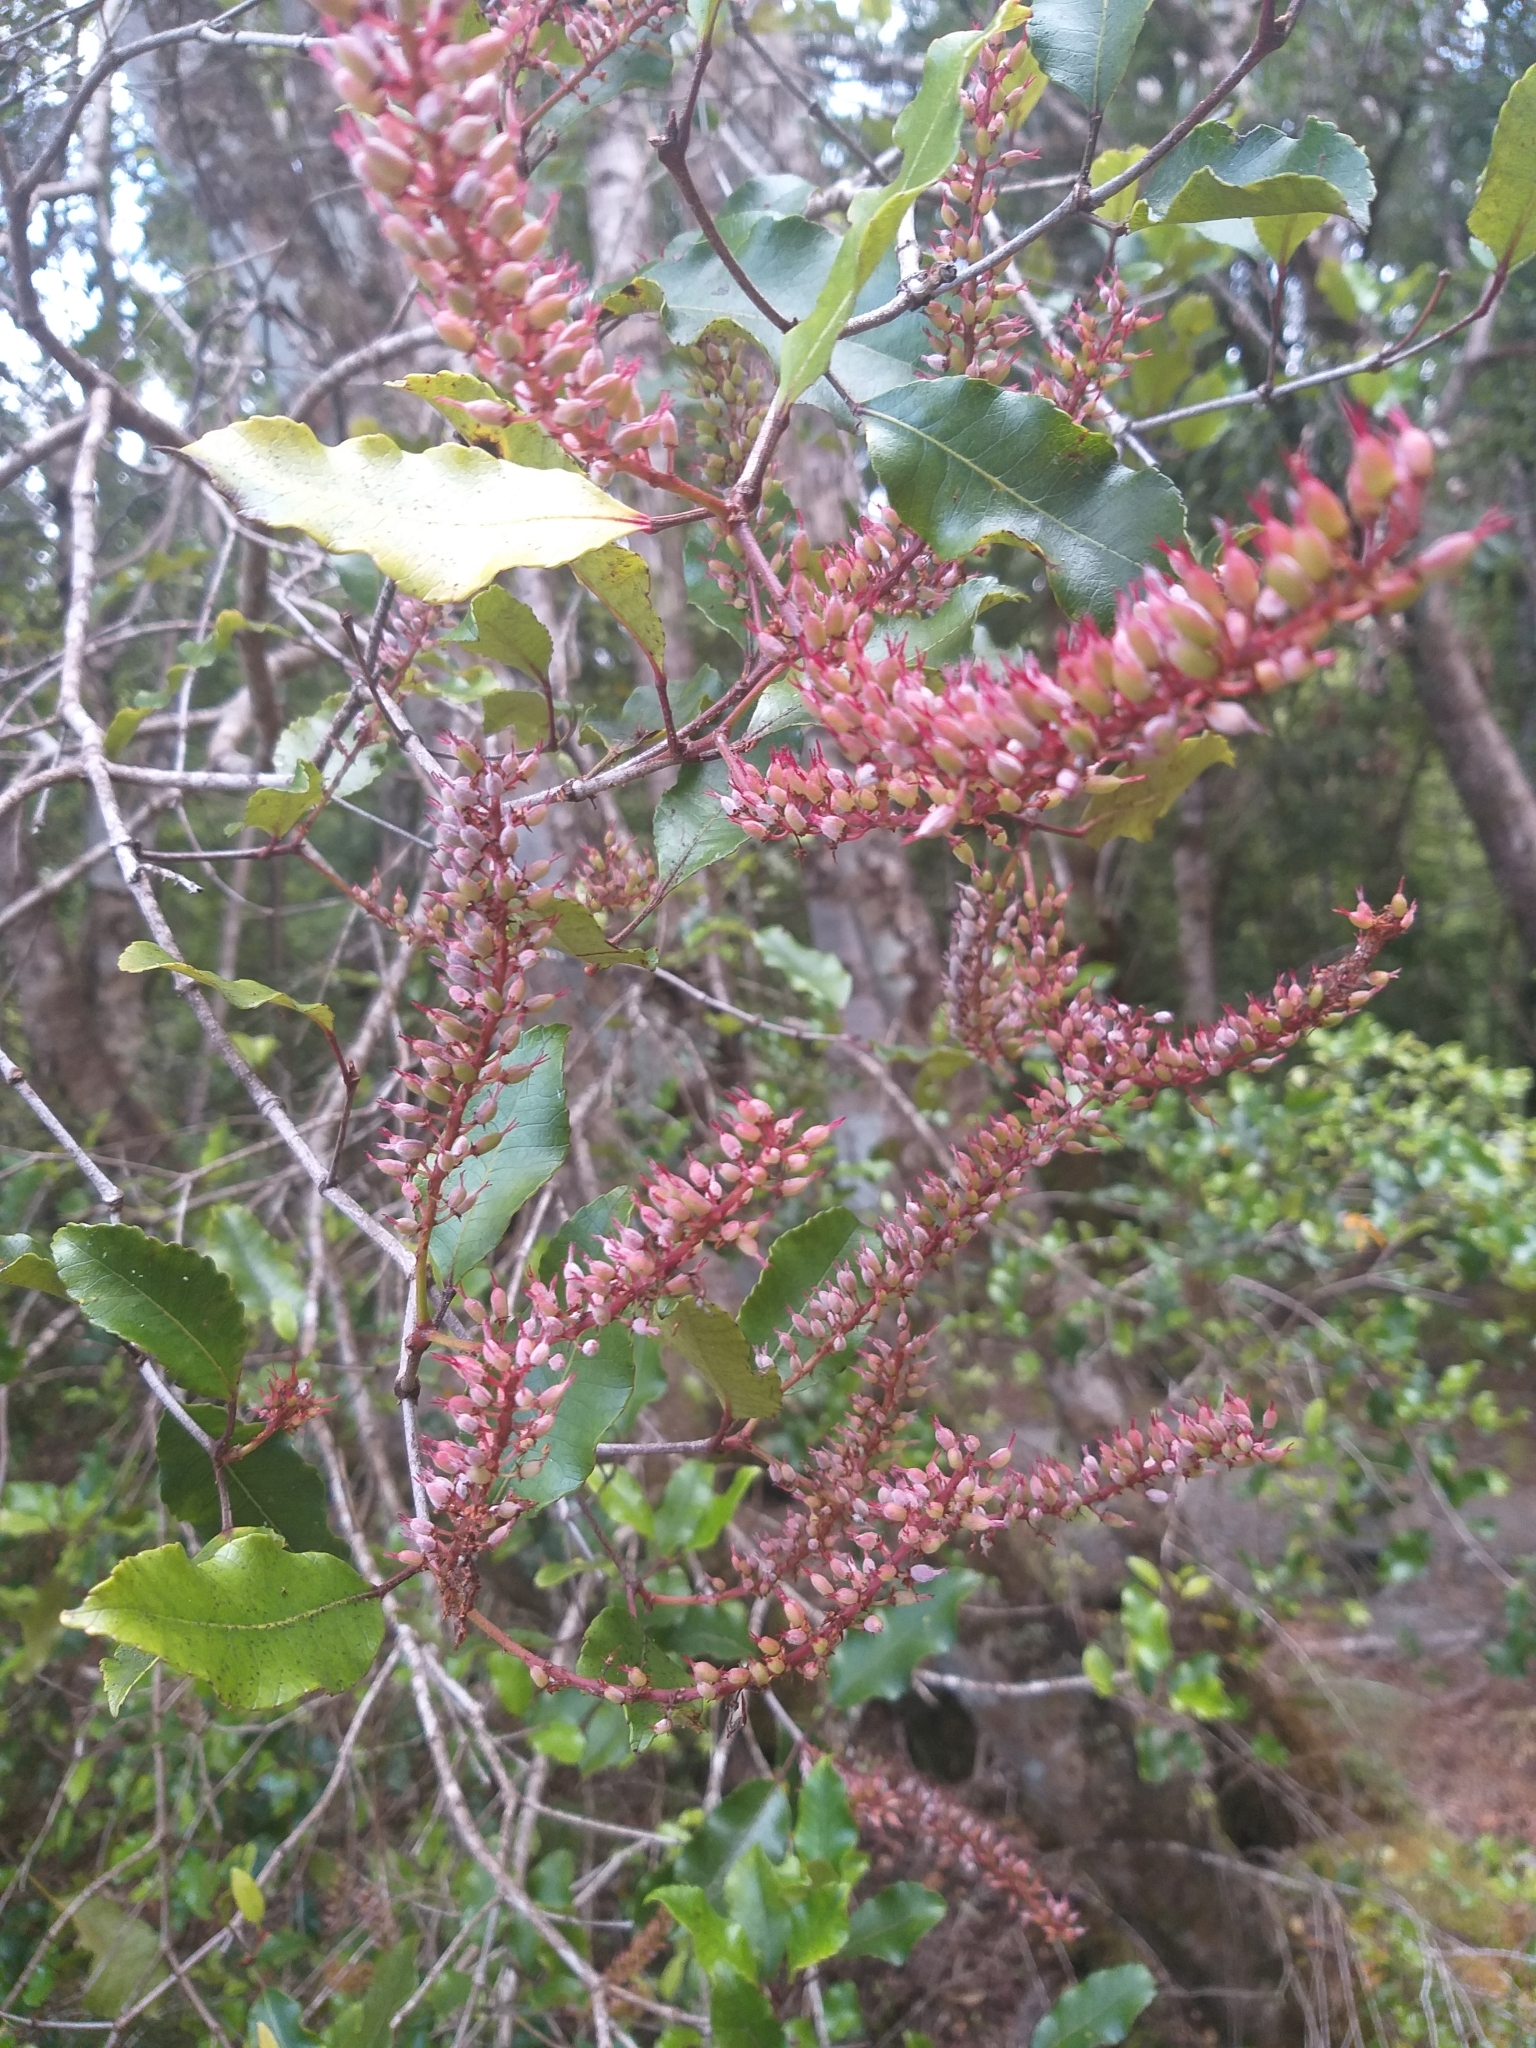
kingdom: Plantae
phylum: Tracheophyta
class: Magnoliopsida
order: Oxalidales
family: Cunoniaceae
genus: Pterophylla
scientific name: Pterophylla racemosa
